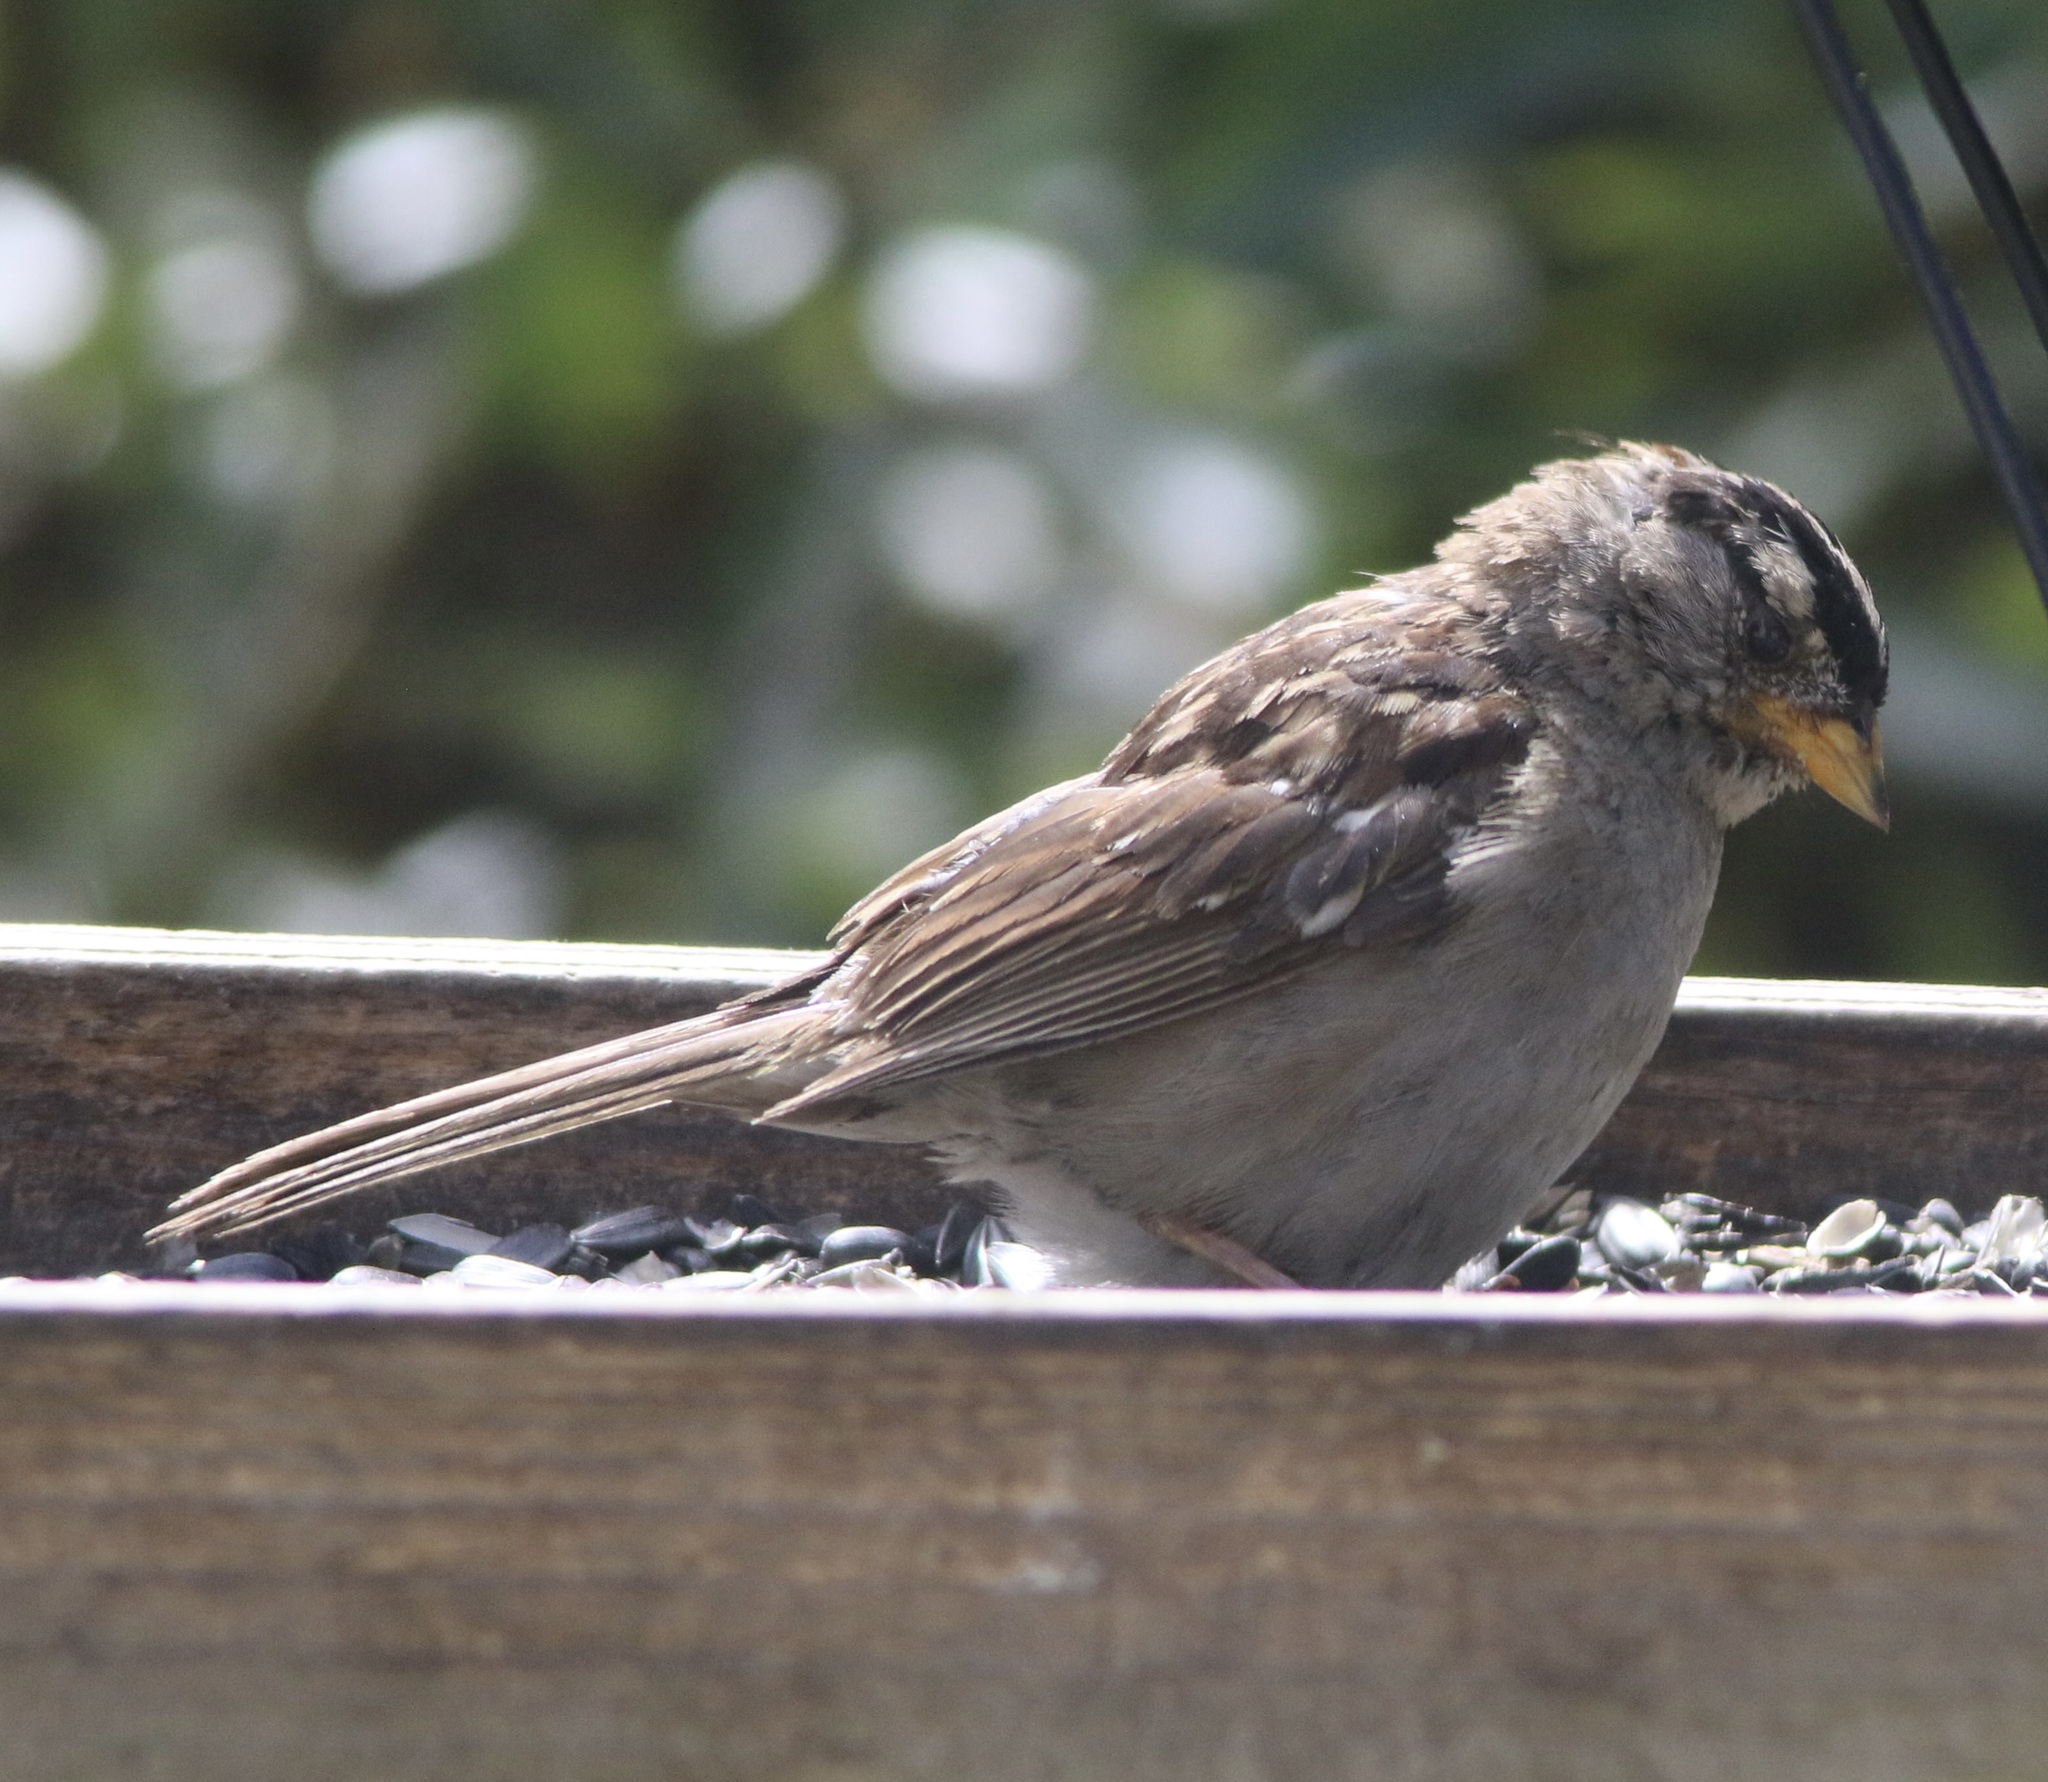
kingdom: Animalia
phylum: Chordata
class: Aves
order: Passeriformes
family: Passerellidae
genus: Zonotrichia
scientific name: Zonotrichia leucophrys
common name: White-crowned sparrow
